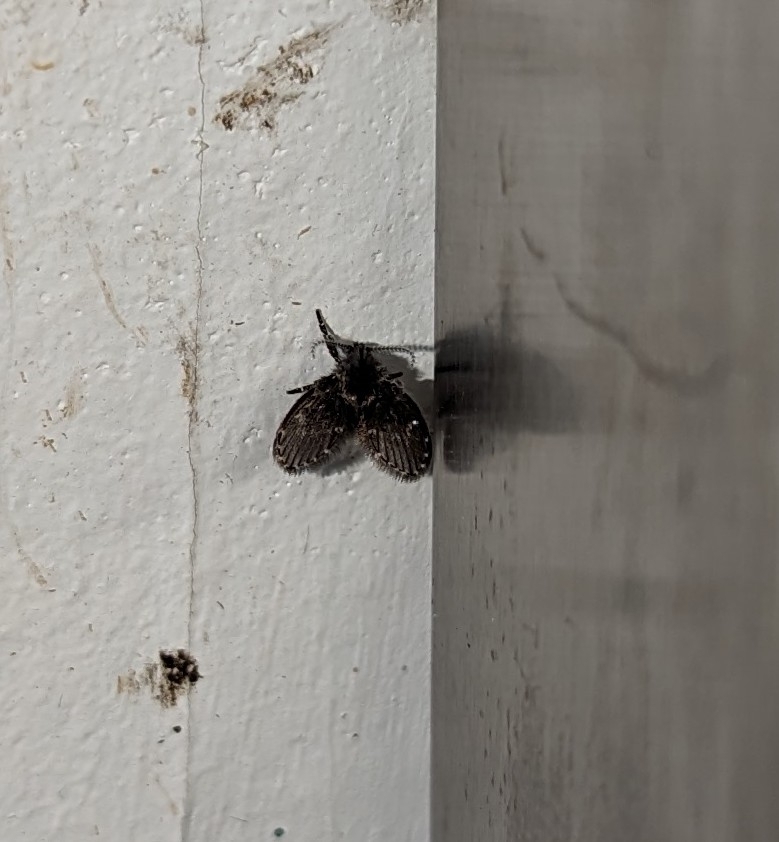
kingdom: Animalia
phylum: Arthropoda
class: Insecta
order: Diptera
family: Psychodidae
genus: Clogmia
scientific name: Clogmia albipunctatus
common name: White-spotted moth fly
